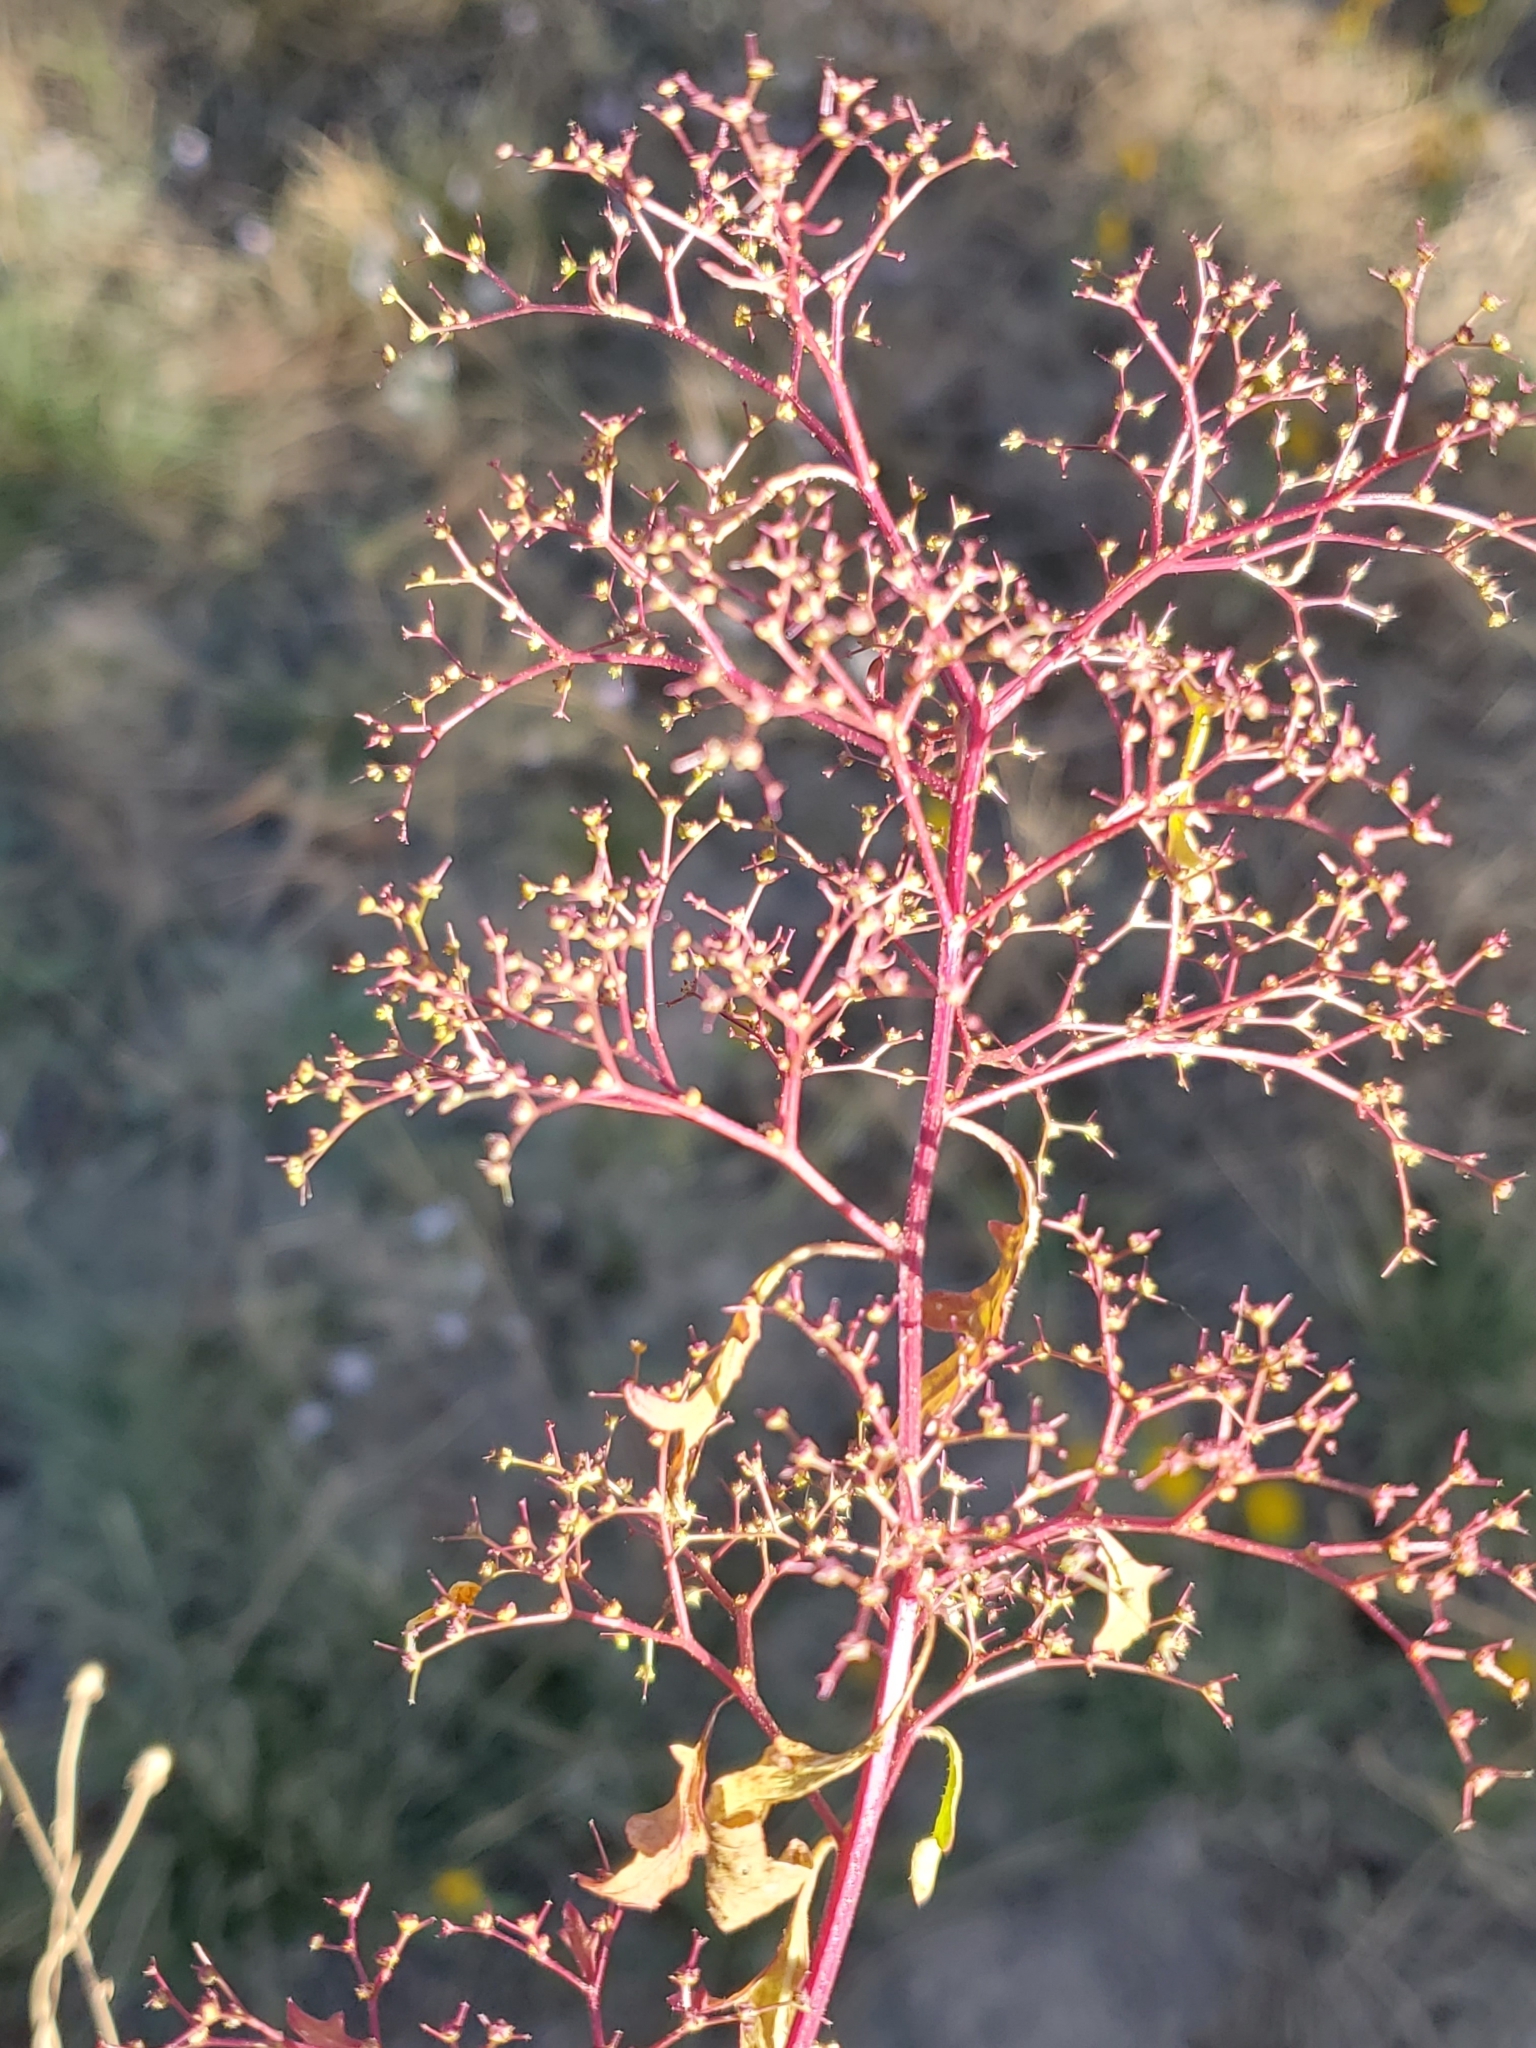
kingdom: Plantae
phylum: Tracheophyta
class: Magnoliopsida
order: Caryophyllales
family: Amaranthaceae
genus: Dysphania
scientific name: Dysphania incisa
